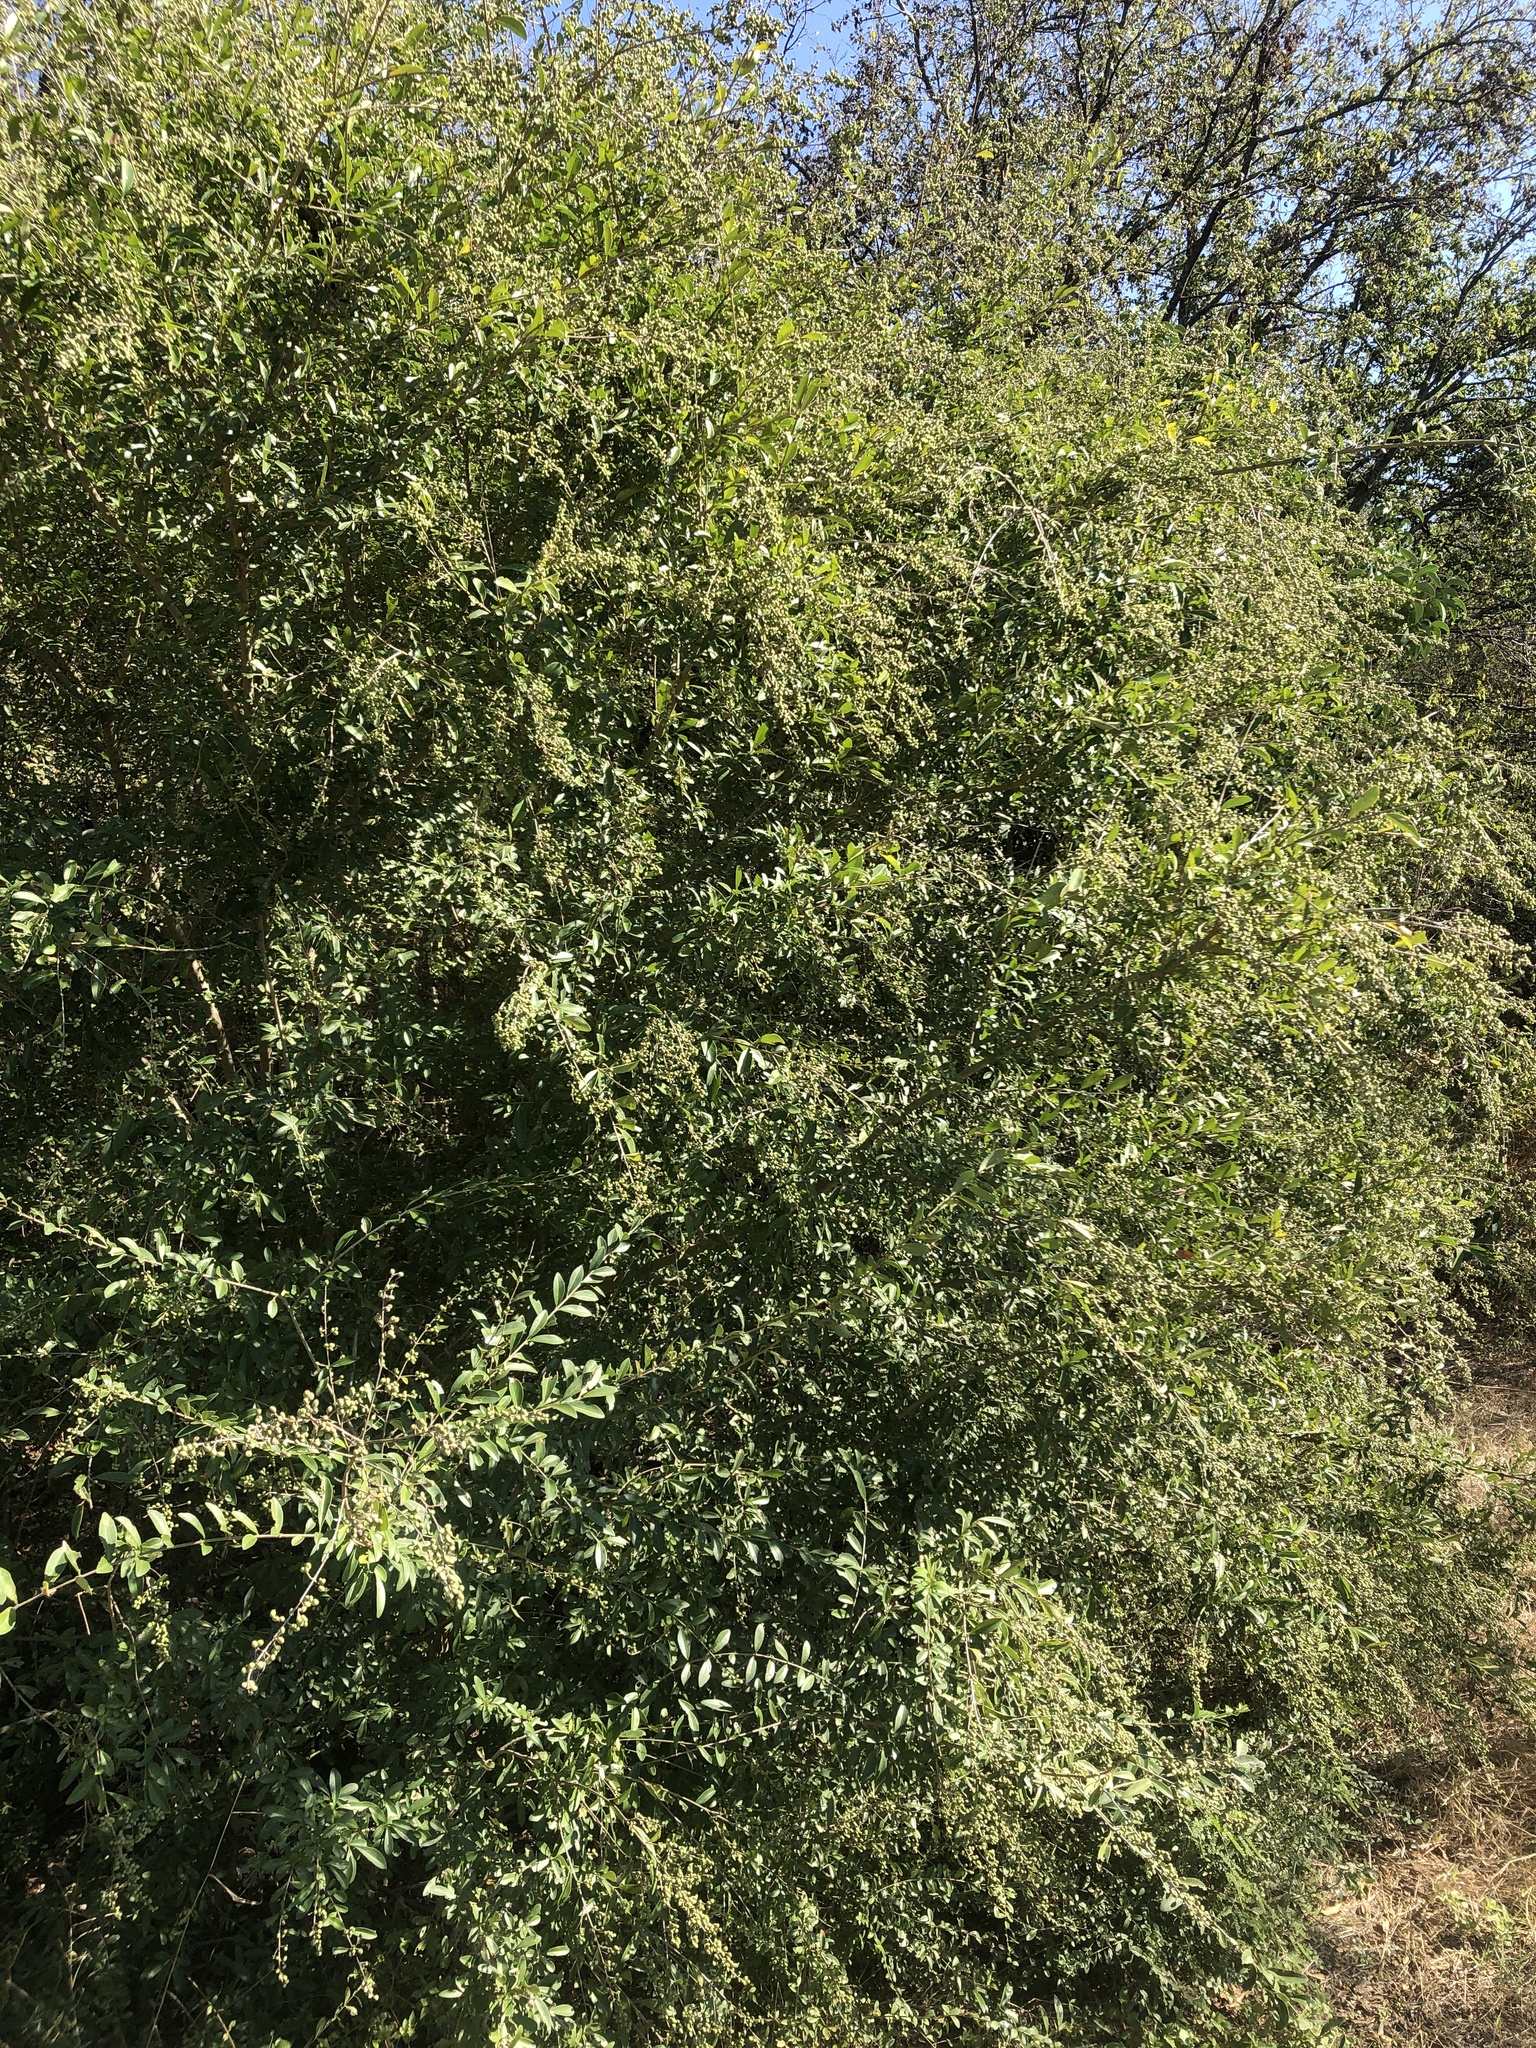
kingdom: Plantae
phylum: Tracheophyta
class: Magnoliopsida
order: Lamiales
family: Oleaceae
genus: Ligustrum
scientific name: Ligustrum quihoui
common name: Waxyleaf privet
